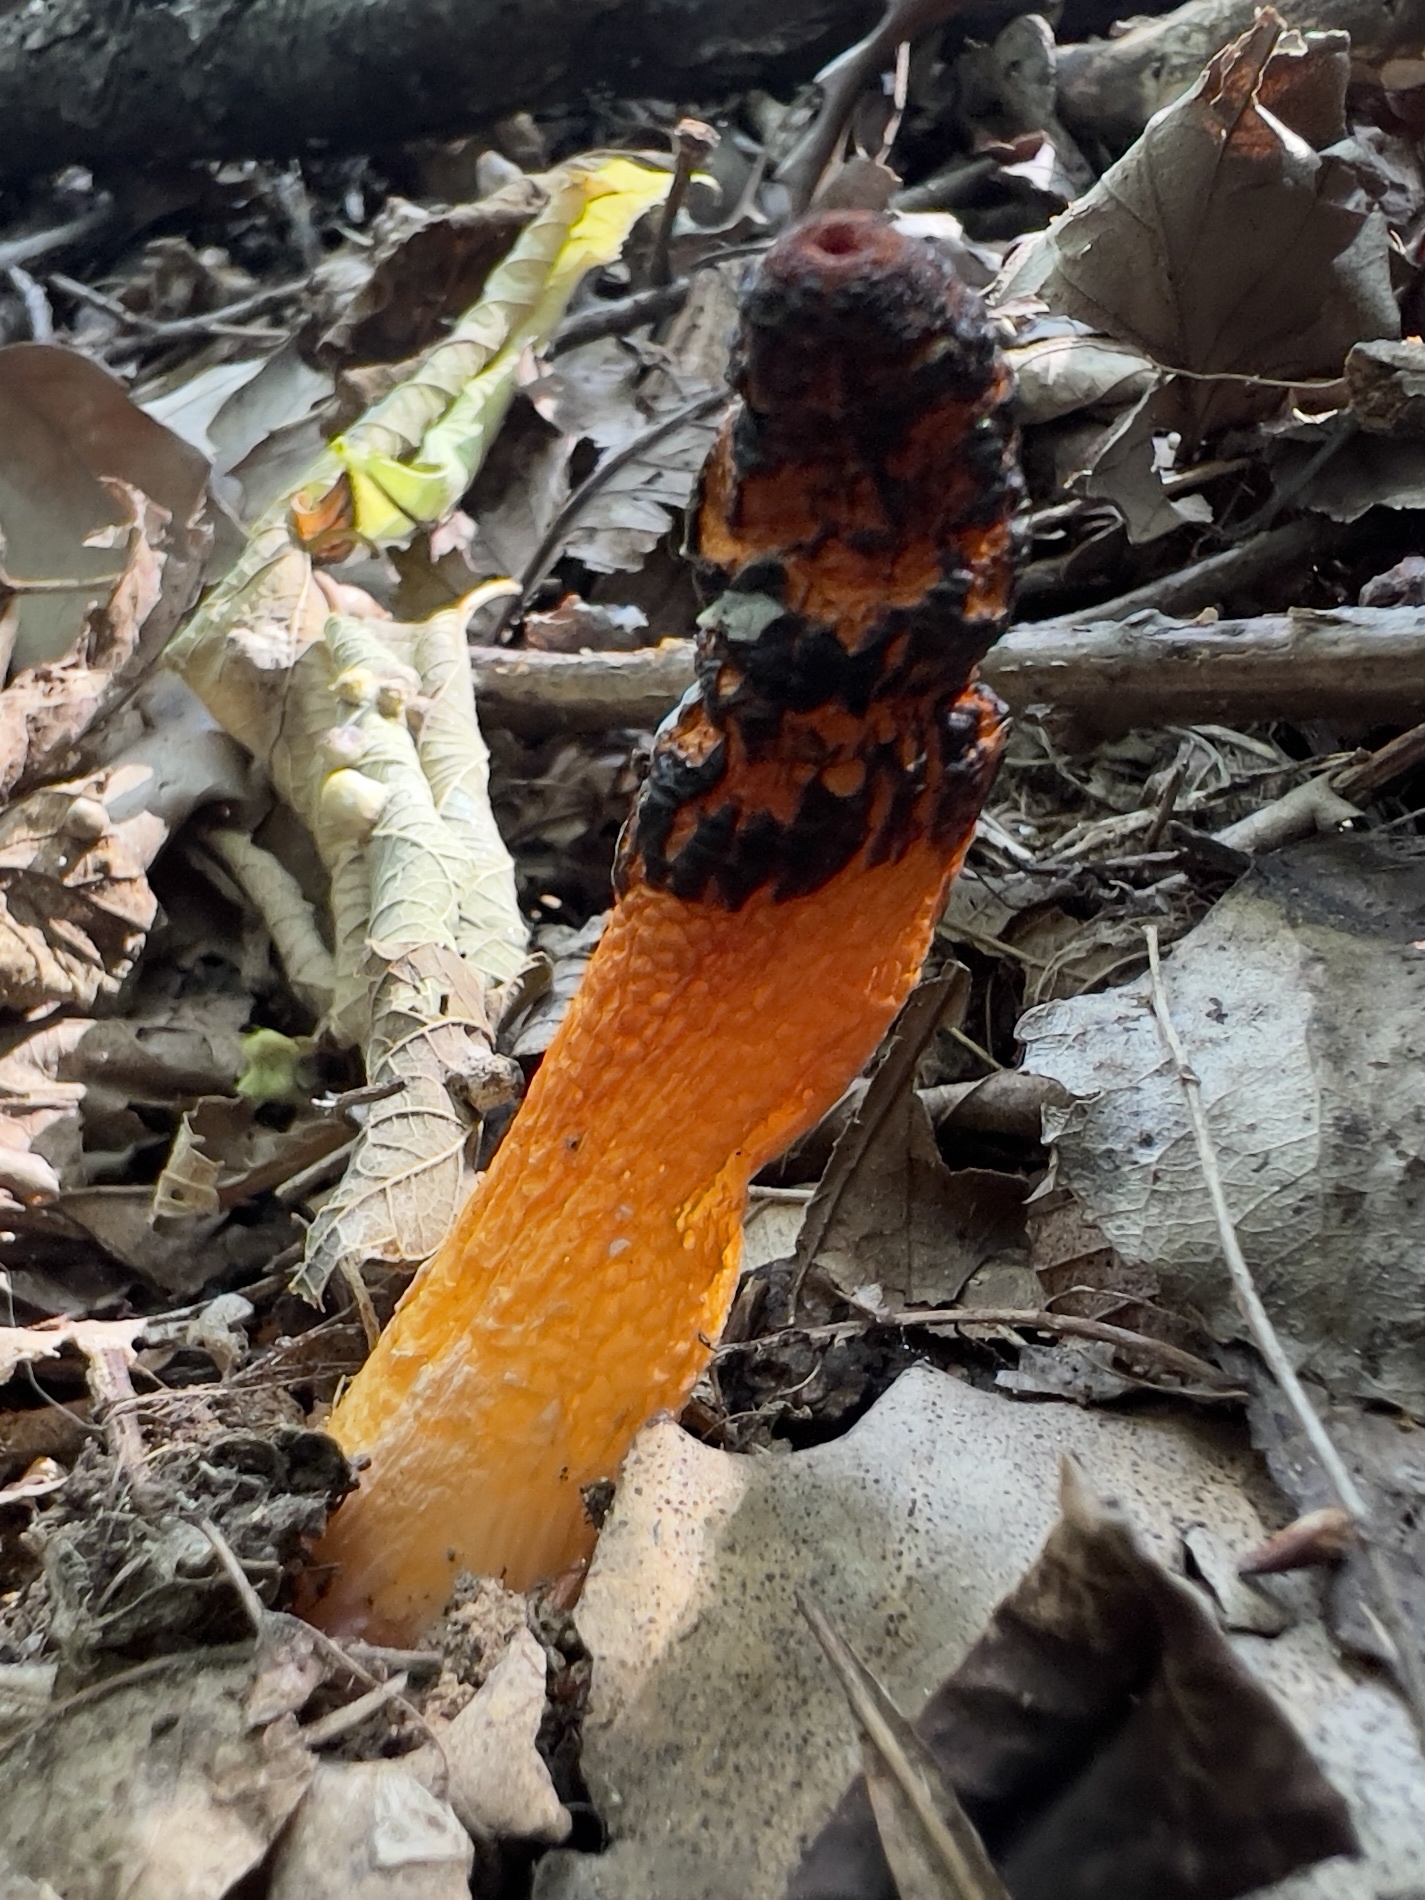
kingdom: Fungi
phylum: Basidiomycota
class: Agaricomycetes
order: Phallales
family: Phallaceae
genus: Mutinus
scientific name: Mutinus elegans
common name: Devil's dipstick
